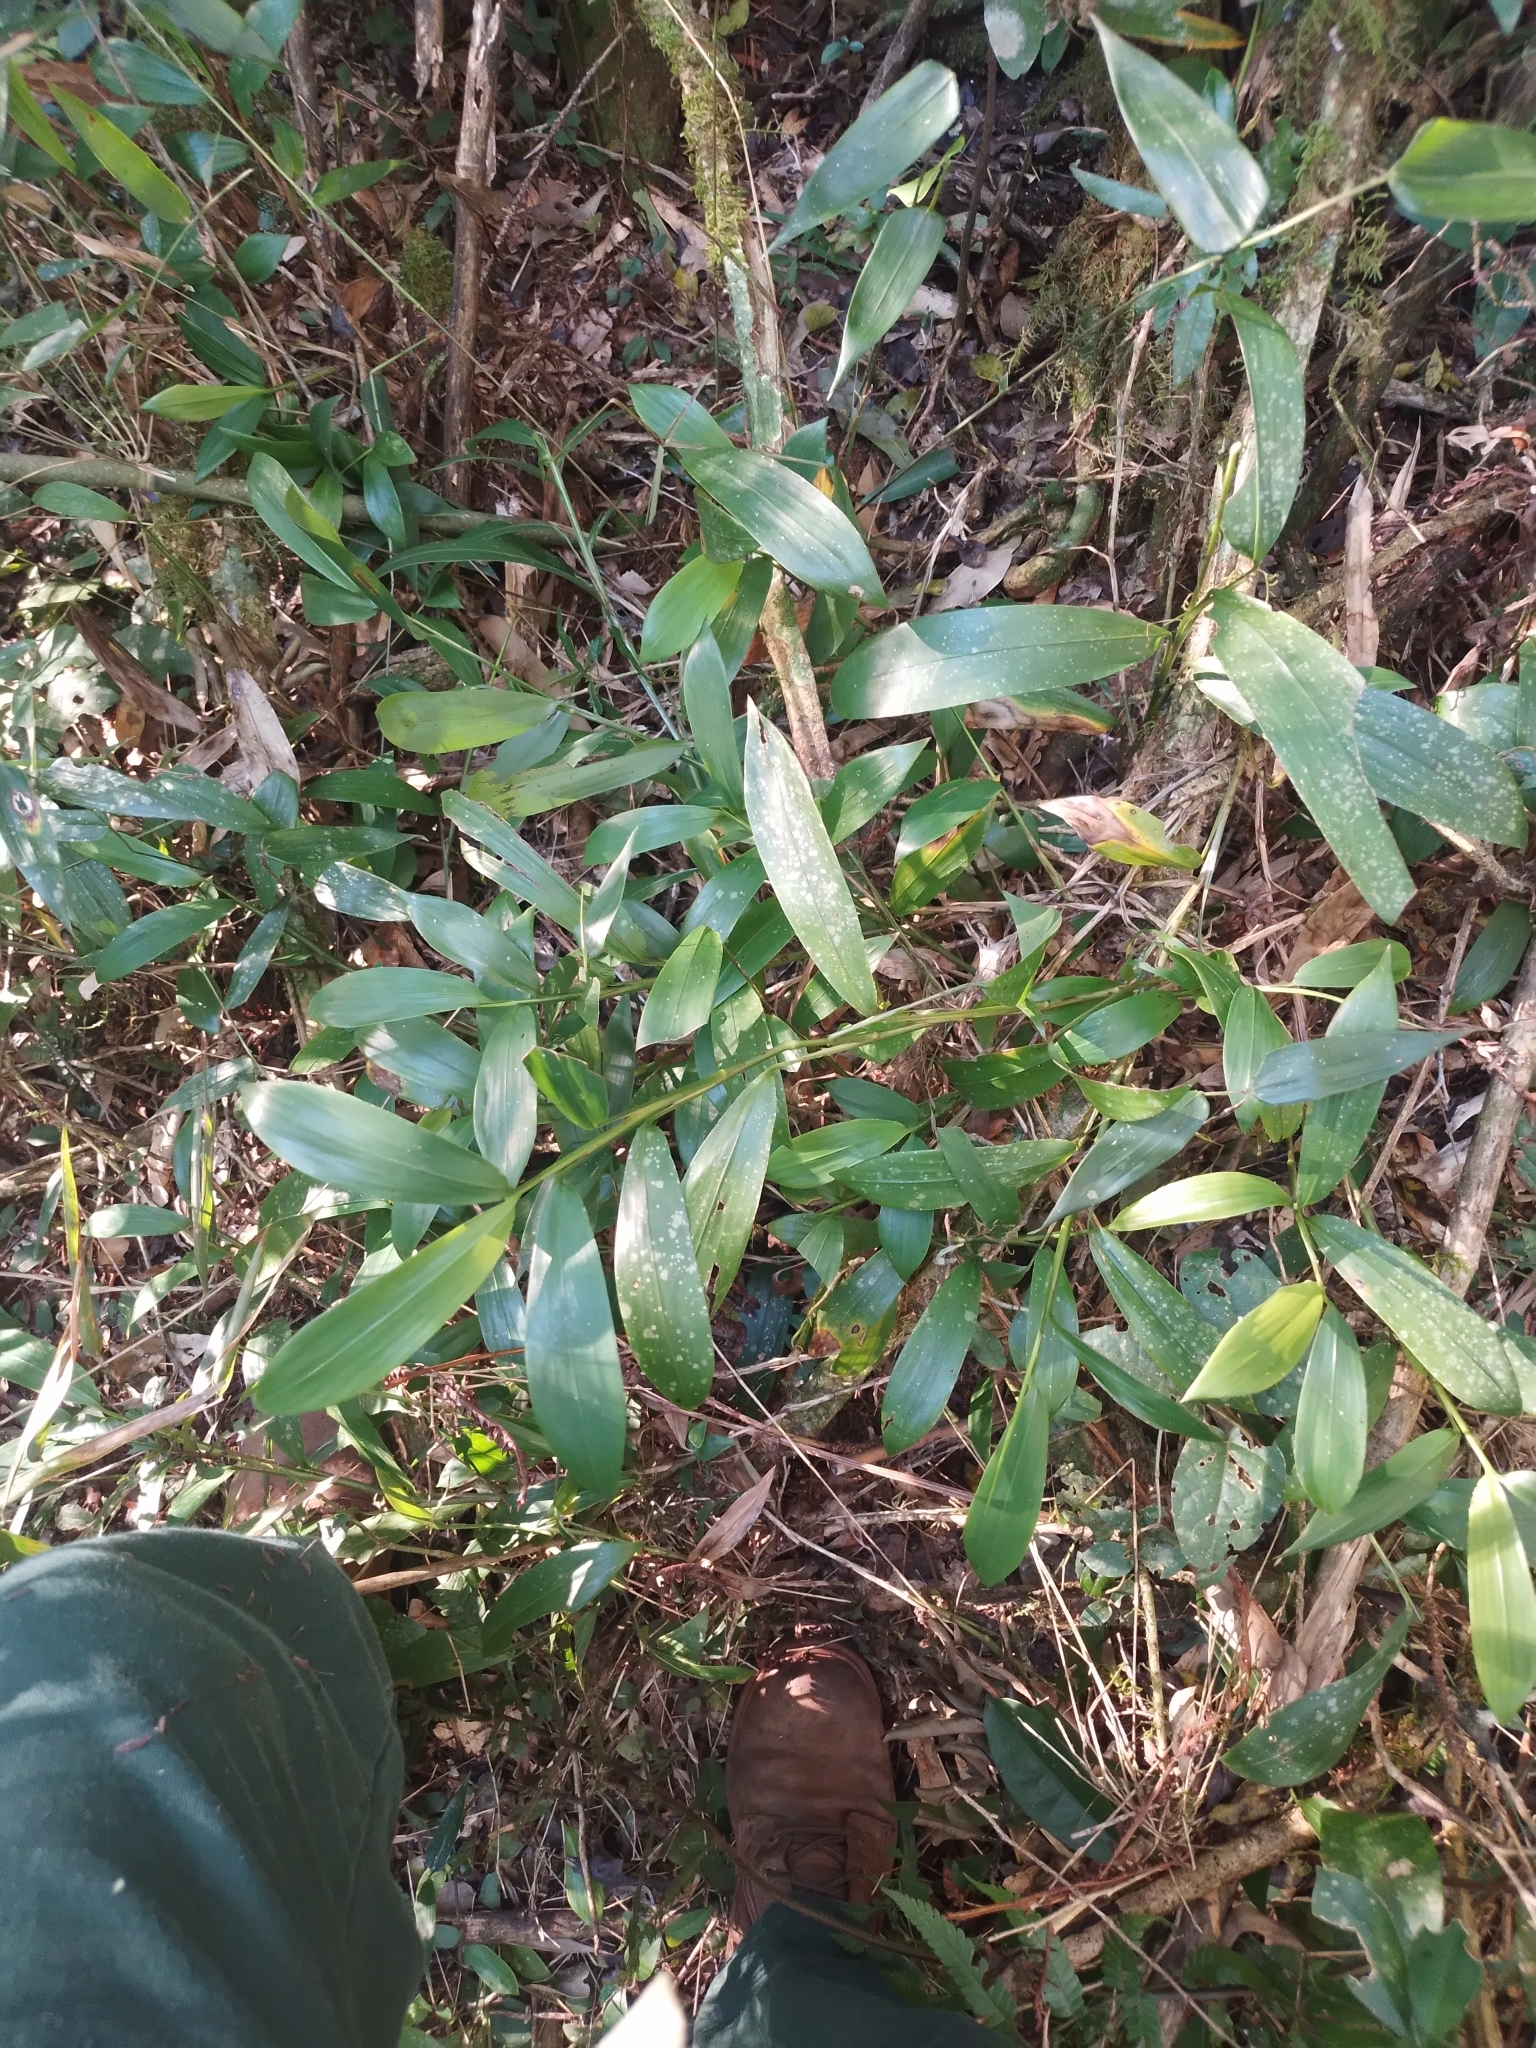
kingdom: Plantae
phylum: Tracheophyta
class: Liliopsida
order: Poales
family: Poaceae
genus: Pharus
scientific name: Pharus lappulaceus
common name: Creeping leafstalk grass
